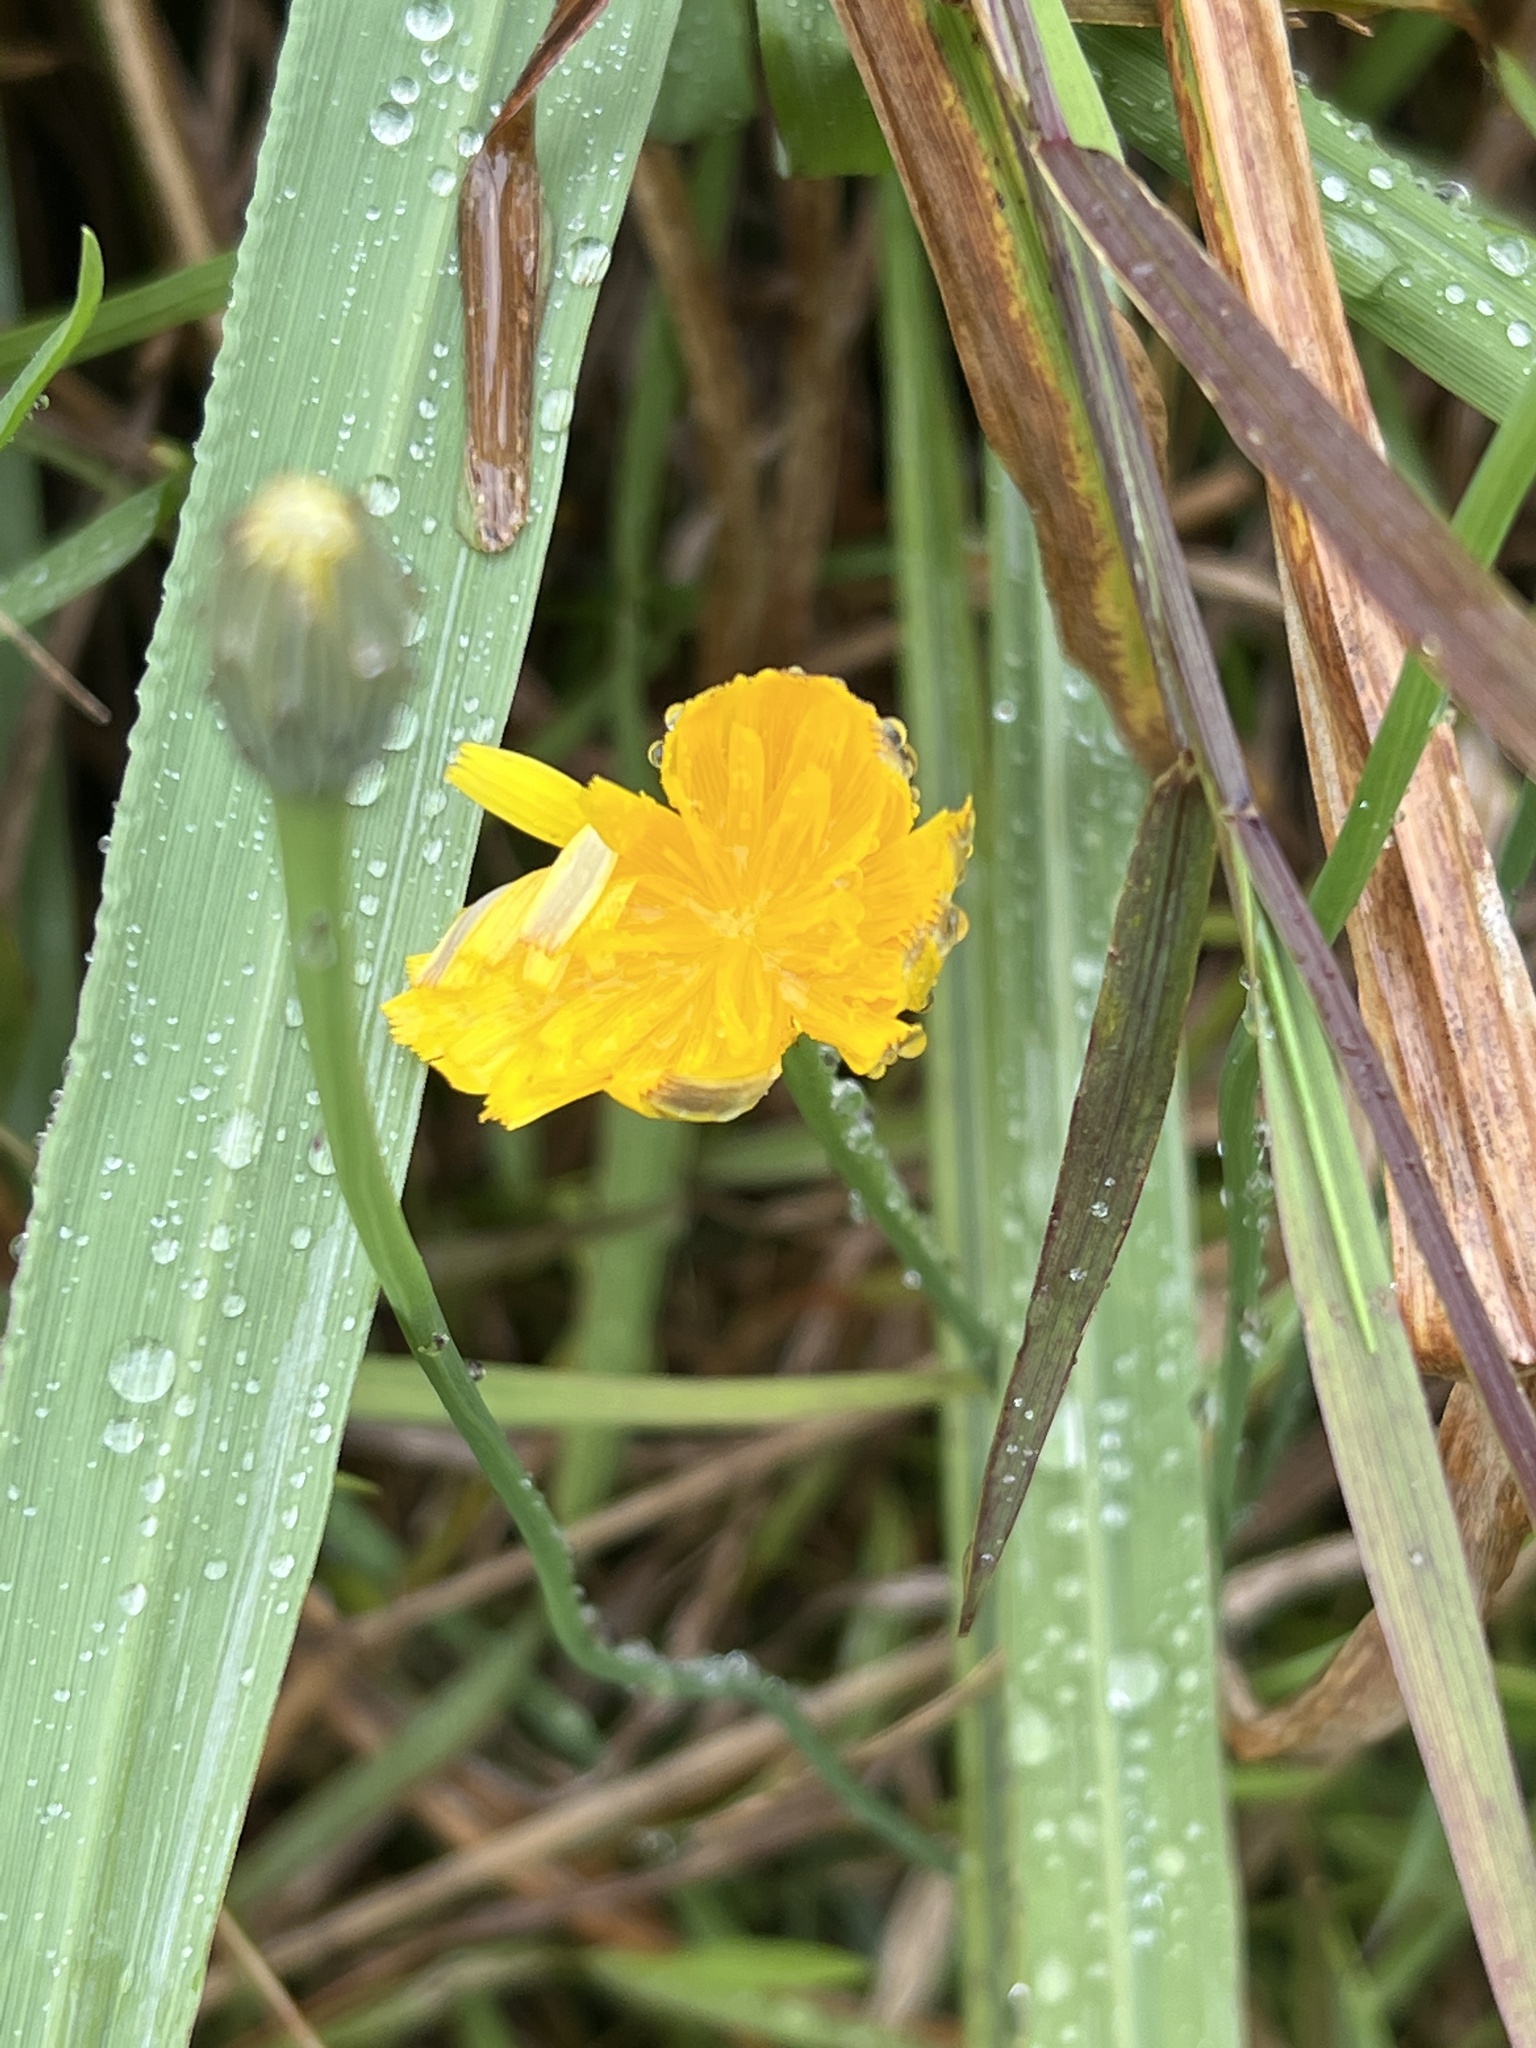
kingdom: Plantae
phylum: Tracheophyta
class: Magnoliopsida
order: Asterales
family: Asteraceae
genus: Hypochaeris
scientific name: Hypochaeris radicata
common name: Flatweed
